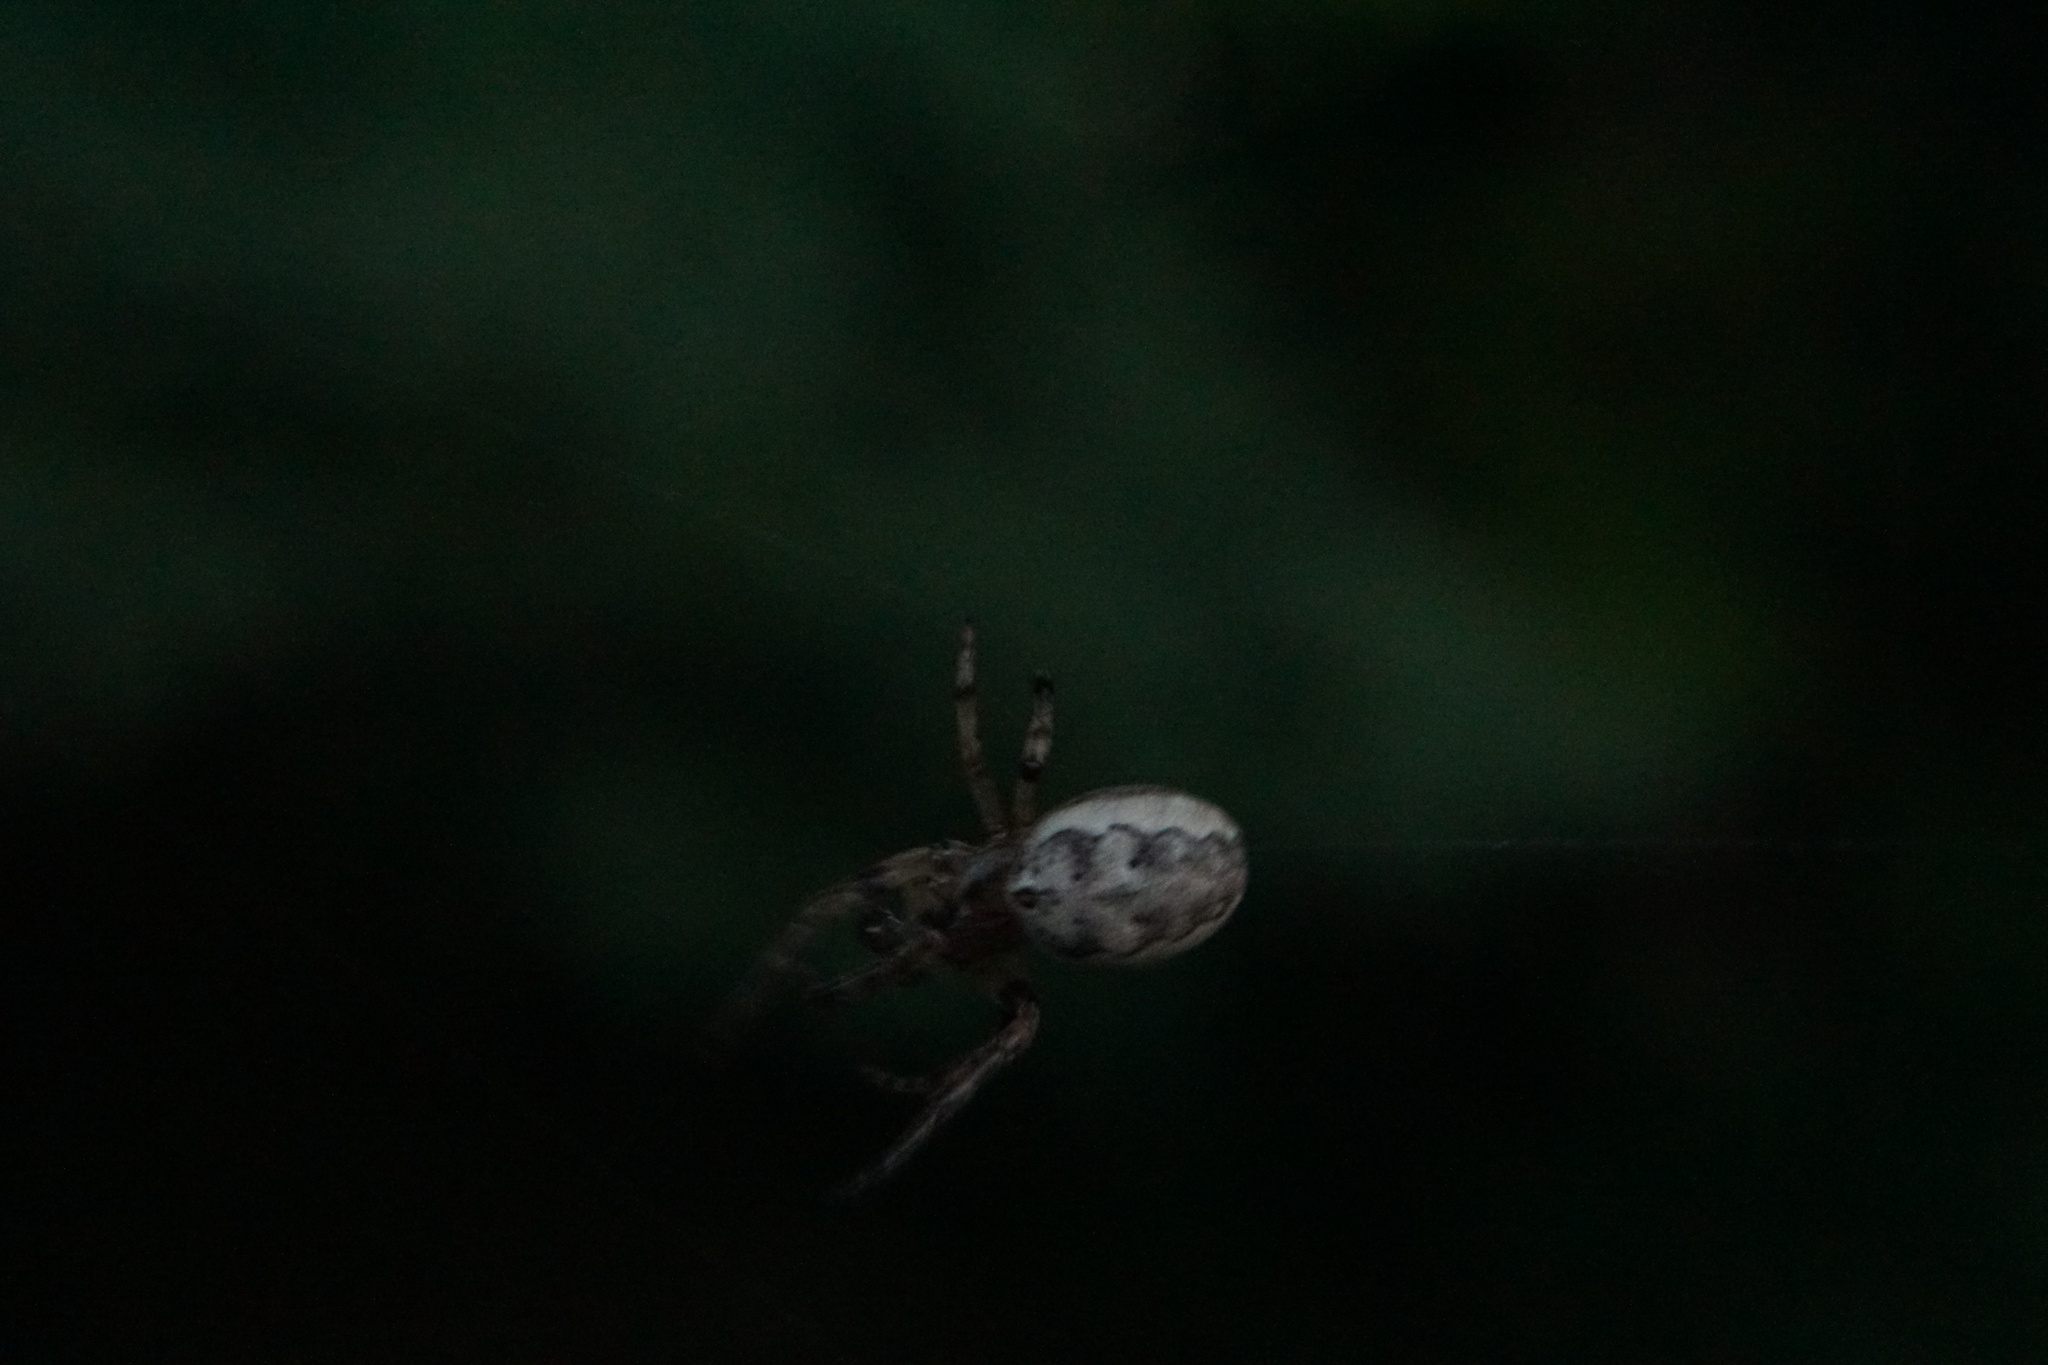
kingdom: Animalia
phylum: Arthropoda
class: Arachnida
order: Araneae
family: Araneidae
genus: Larinioides
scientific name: Larinioides cornutus
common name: Furrow orbweaver
